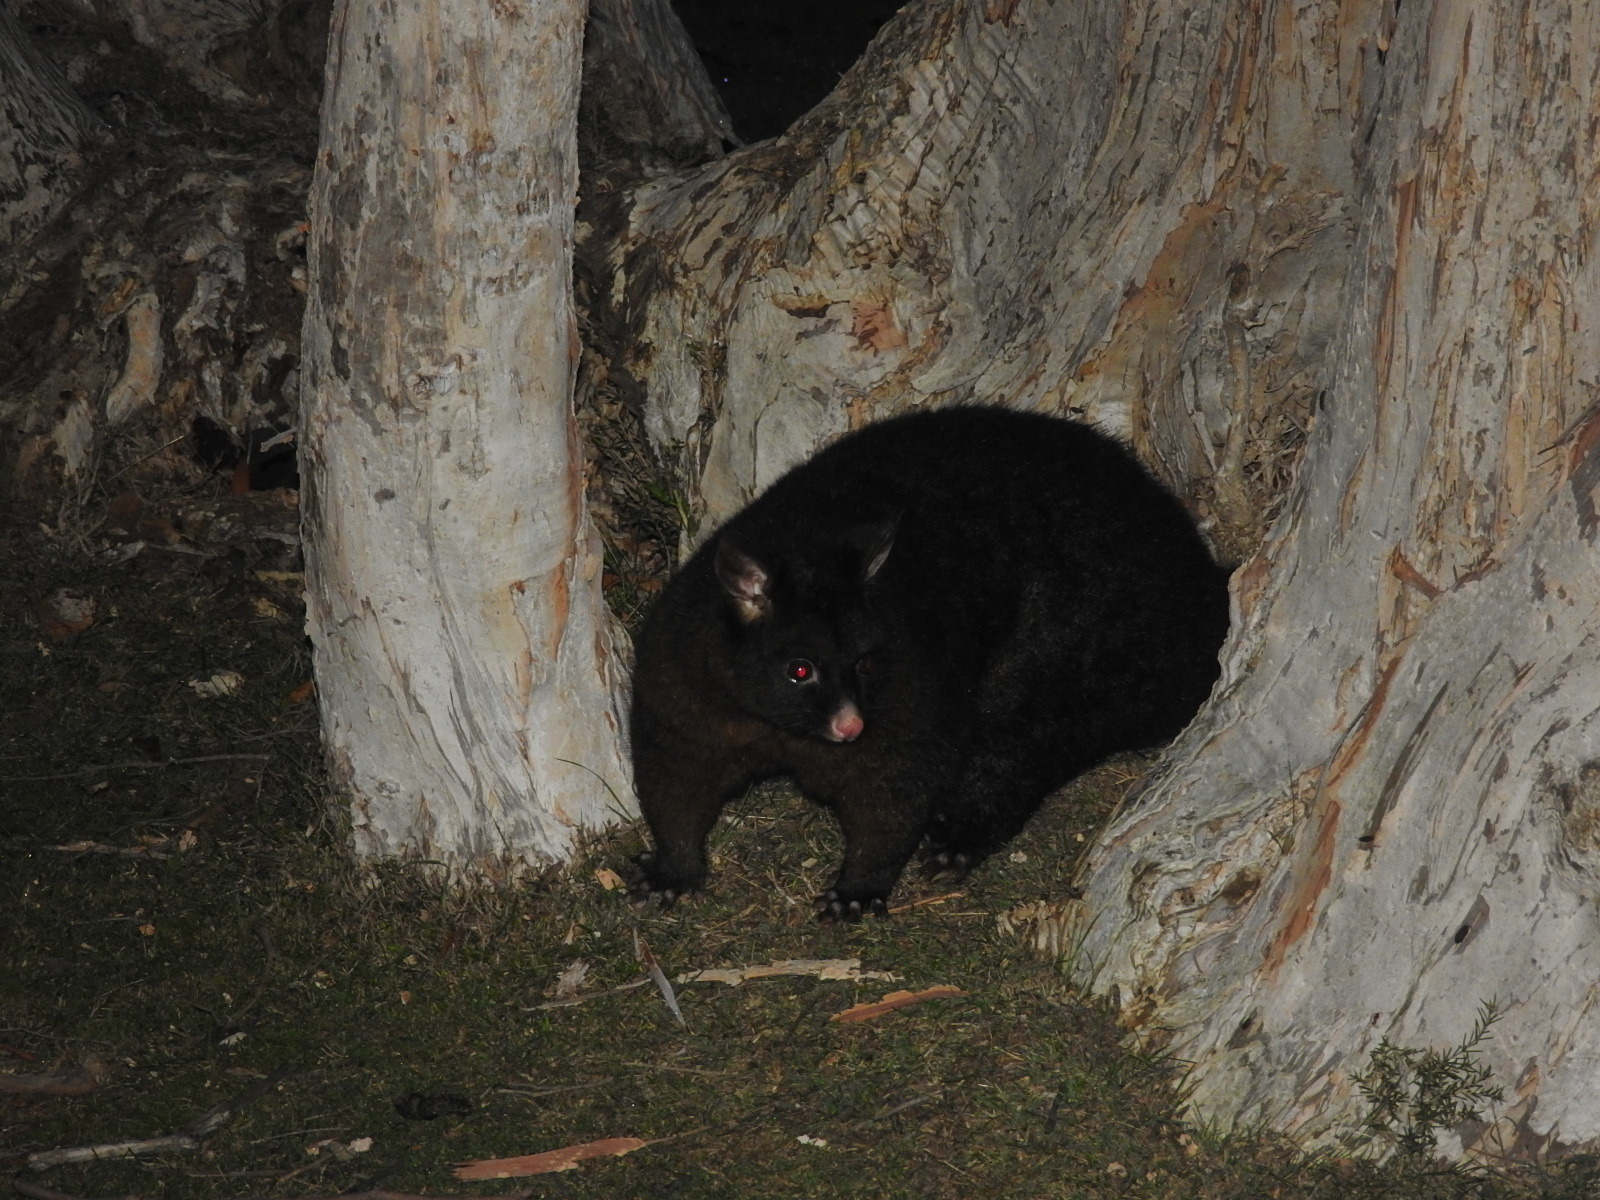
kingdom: Animalia
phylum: Chordata
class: Mammalia
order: Diprotodontia
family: Phalangeridae
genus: Trichosurus
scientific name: Trichosurus vulpecula
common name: Common brushtail
